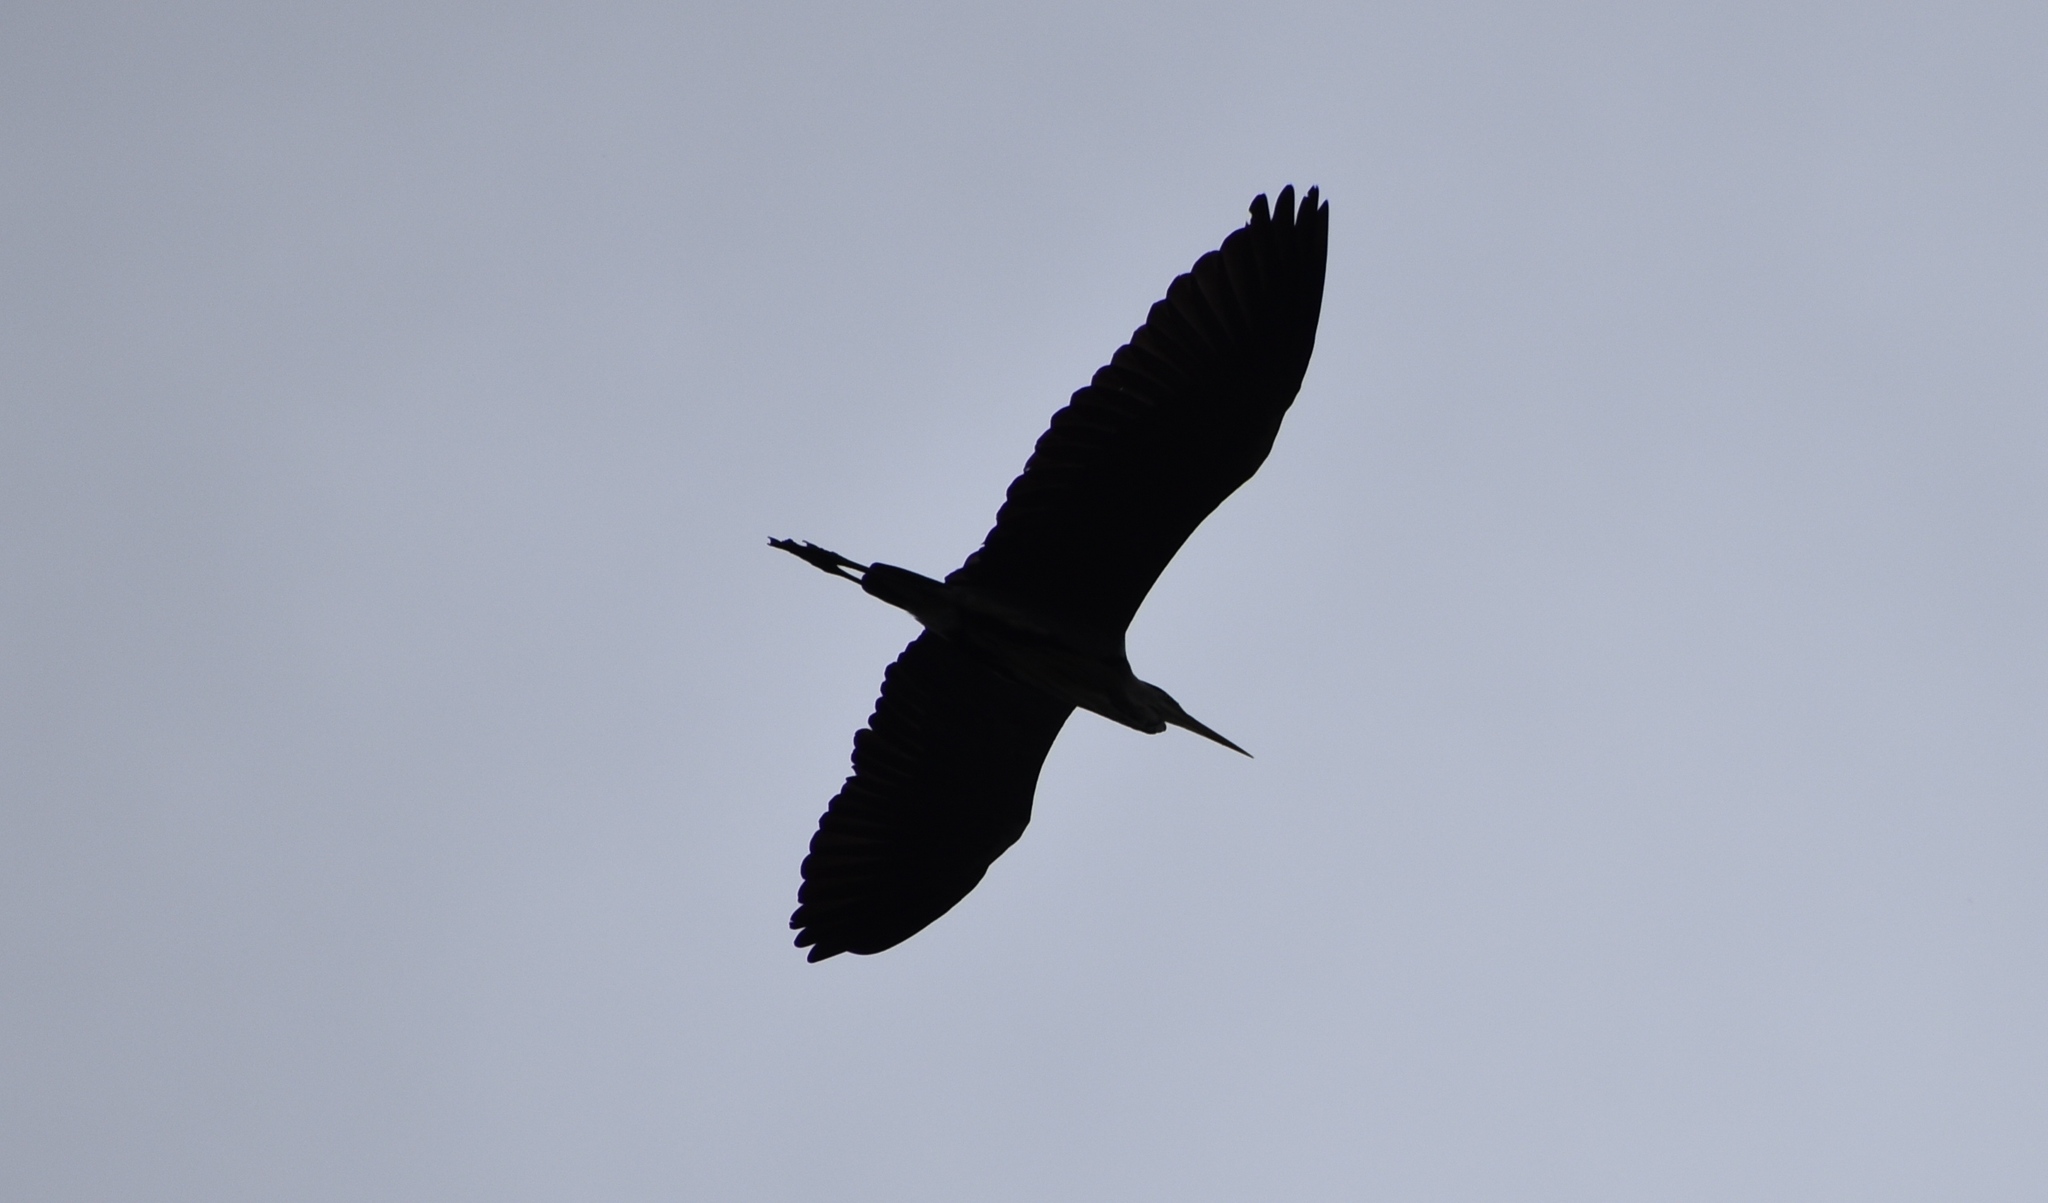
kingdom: Animalia
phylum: Chordata
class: Aves
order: Pelecaniformes
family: Ardeidae
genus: Ardea
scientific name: Ardea cinerea
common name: Grey heron
